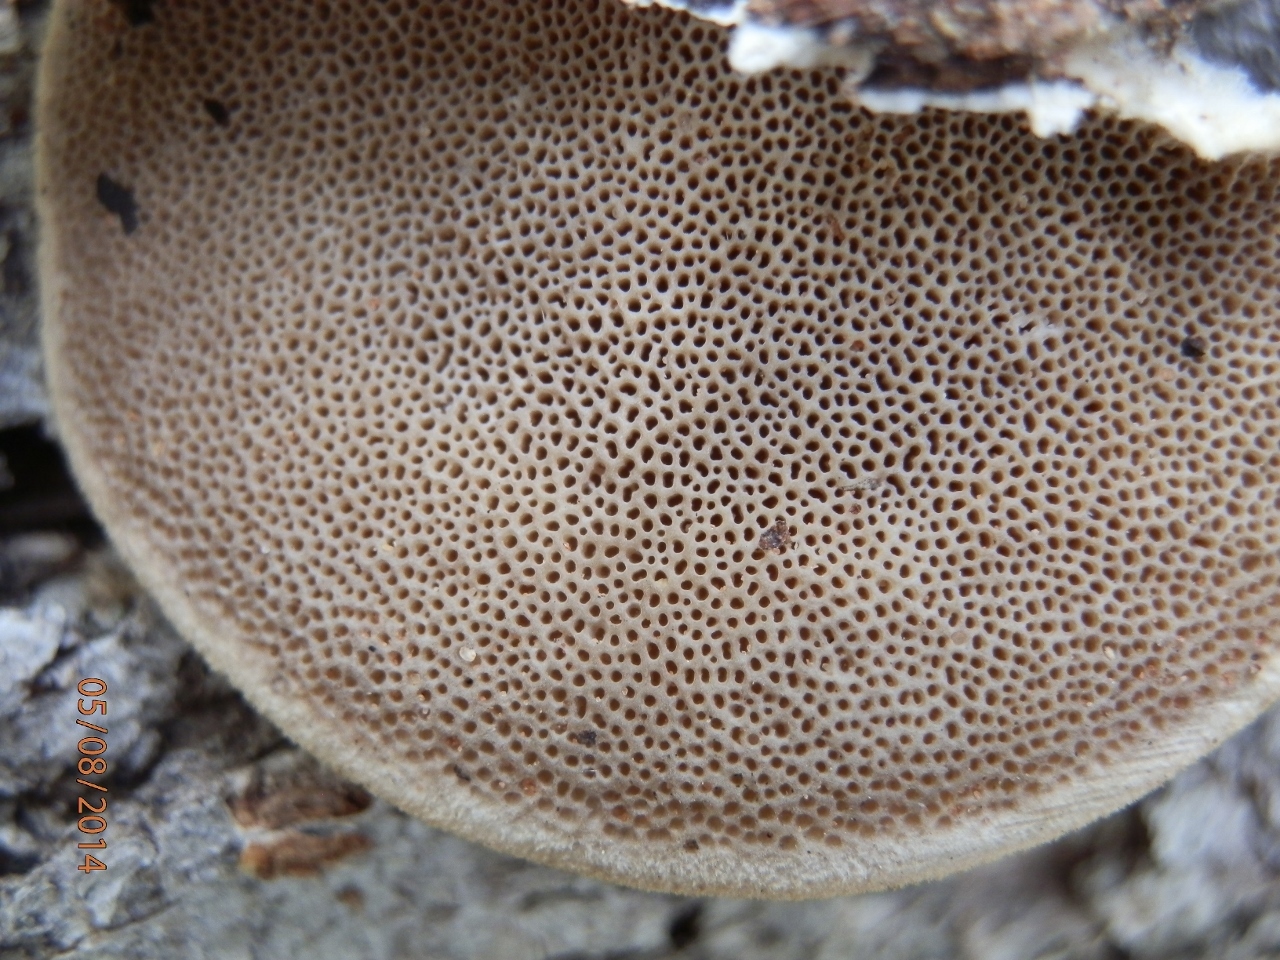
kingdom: Fungi
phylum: Basidiomycota
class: Agaricomycetes
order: Polyporales
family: Polyporaceae
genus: Trametes
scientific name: Trametes hirsuta
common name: Hairy bracket
